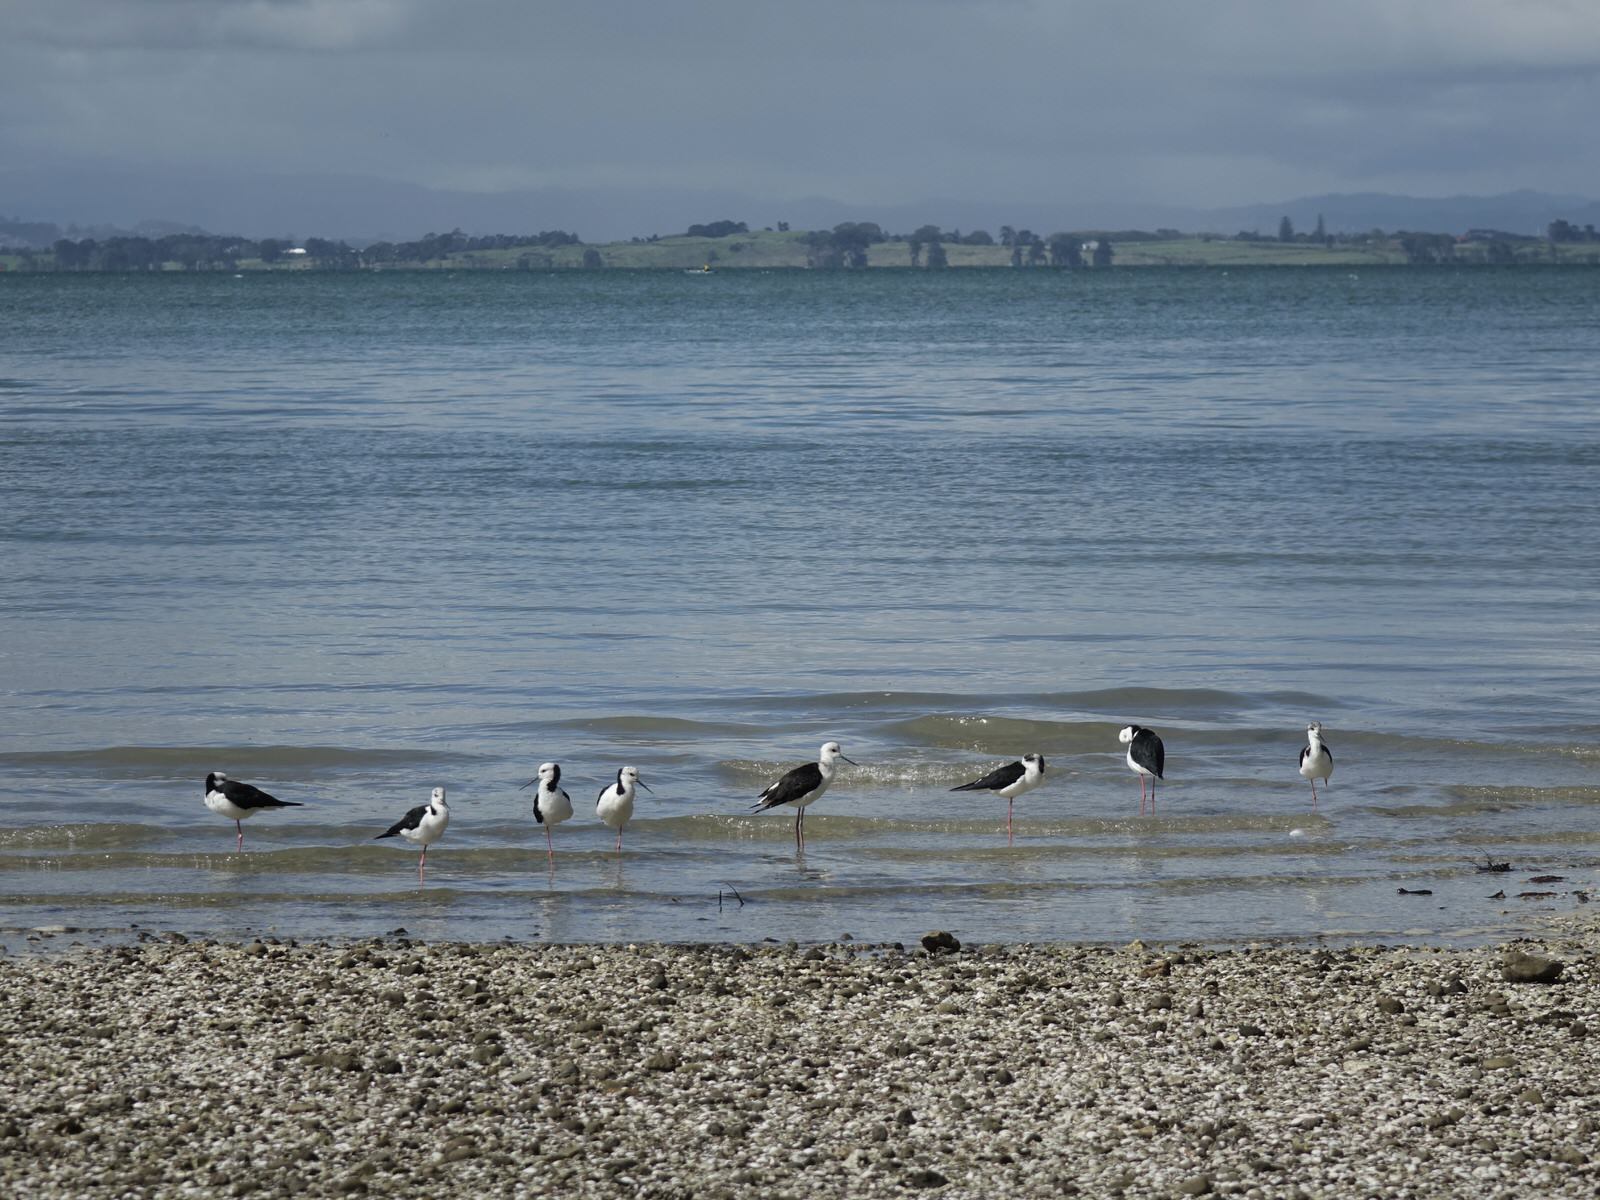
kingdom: Animalia
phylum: Chordata
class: Aves
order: Charadriiformes
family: Recurvirostridae
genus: Himantopus
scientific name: Himantopus leucocephalus
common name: White-headed stilt
